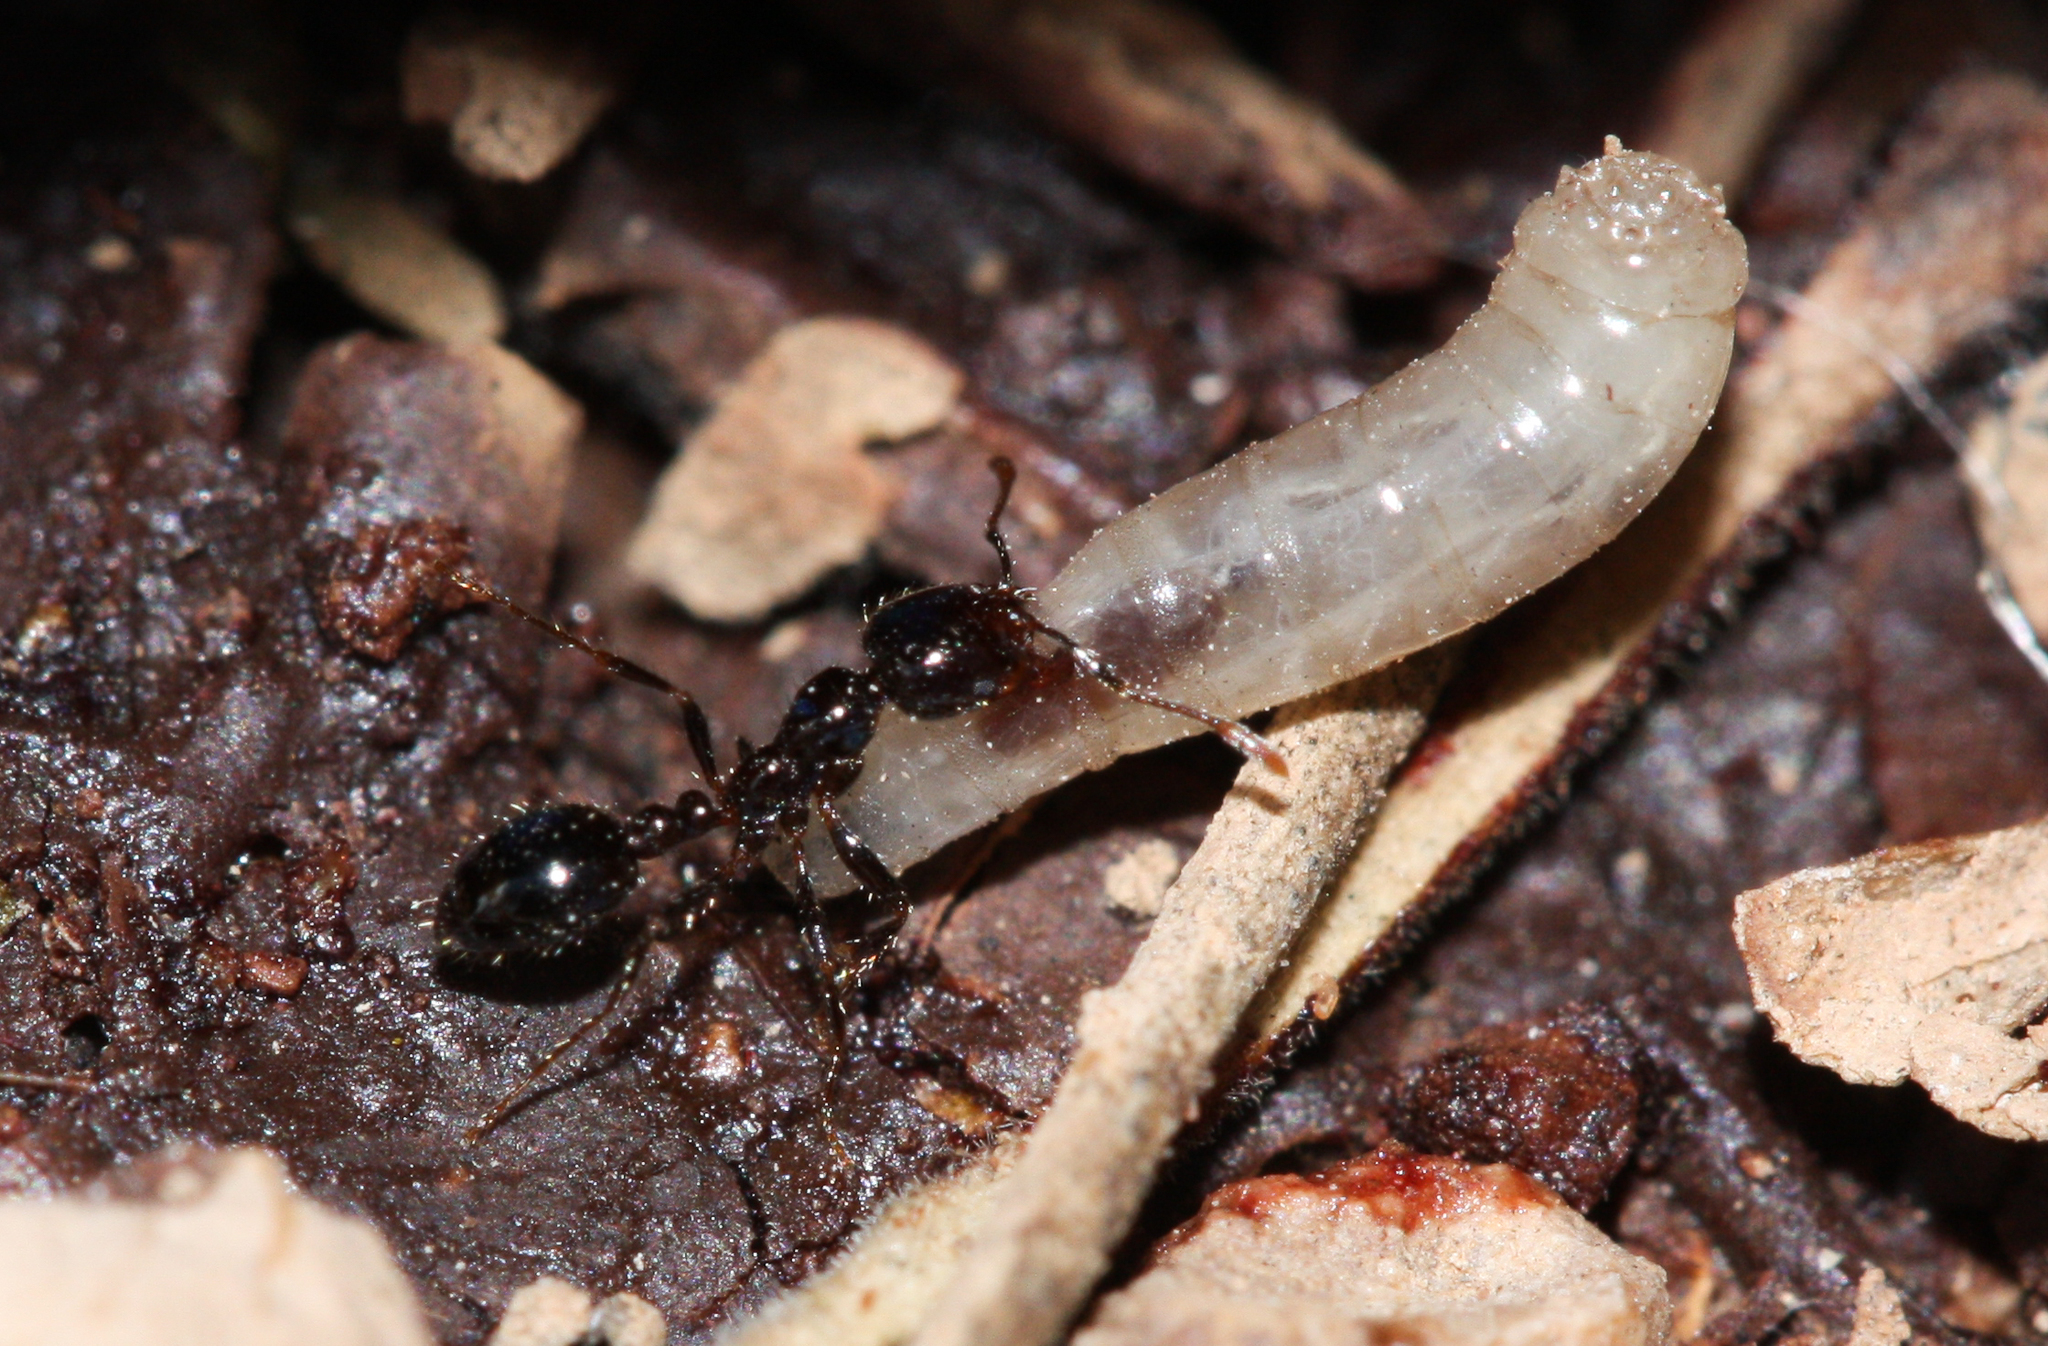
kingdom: Animalia
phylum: Arthropoda
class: Insecta
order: Hymenoptera
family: Formicidae
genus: Solenopsis
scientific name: Solenopsis xyloni
